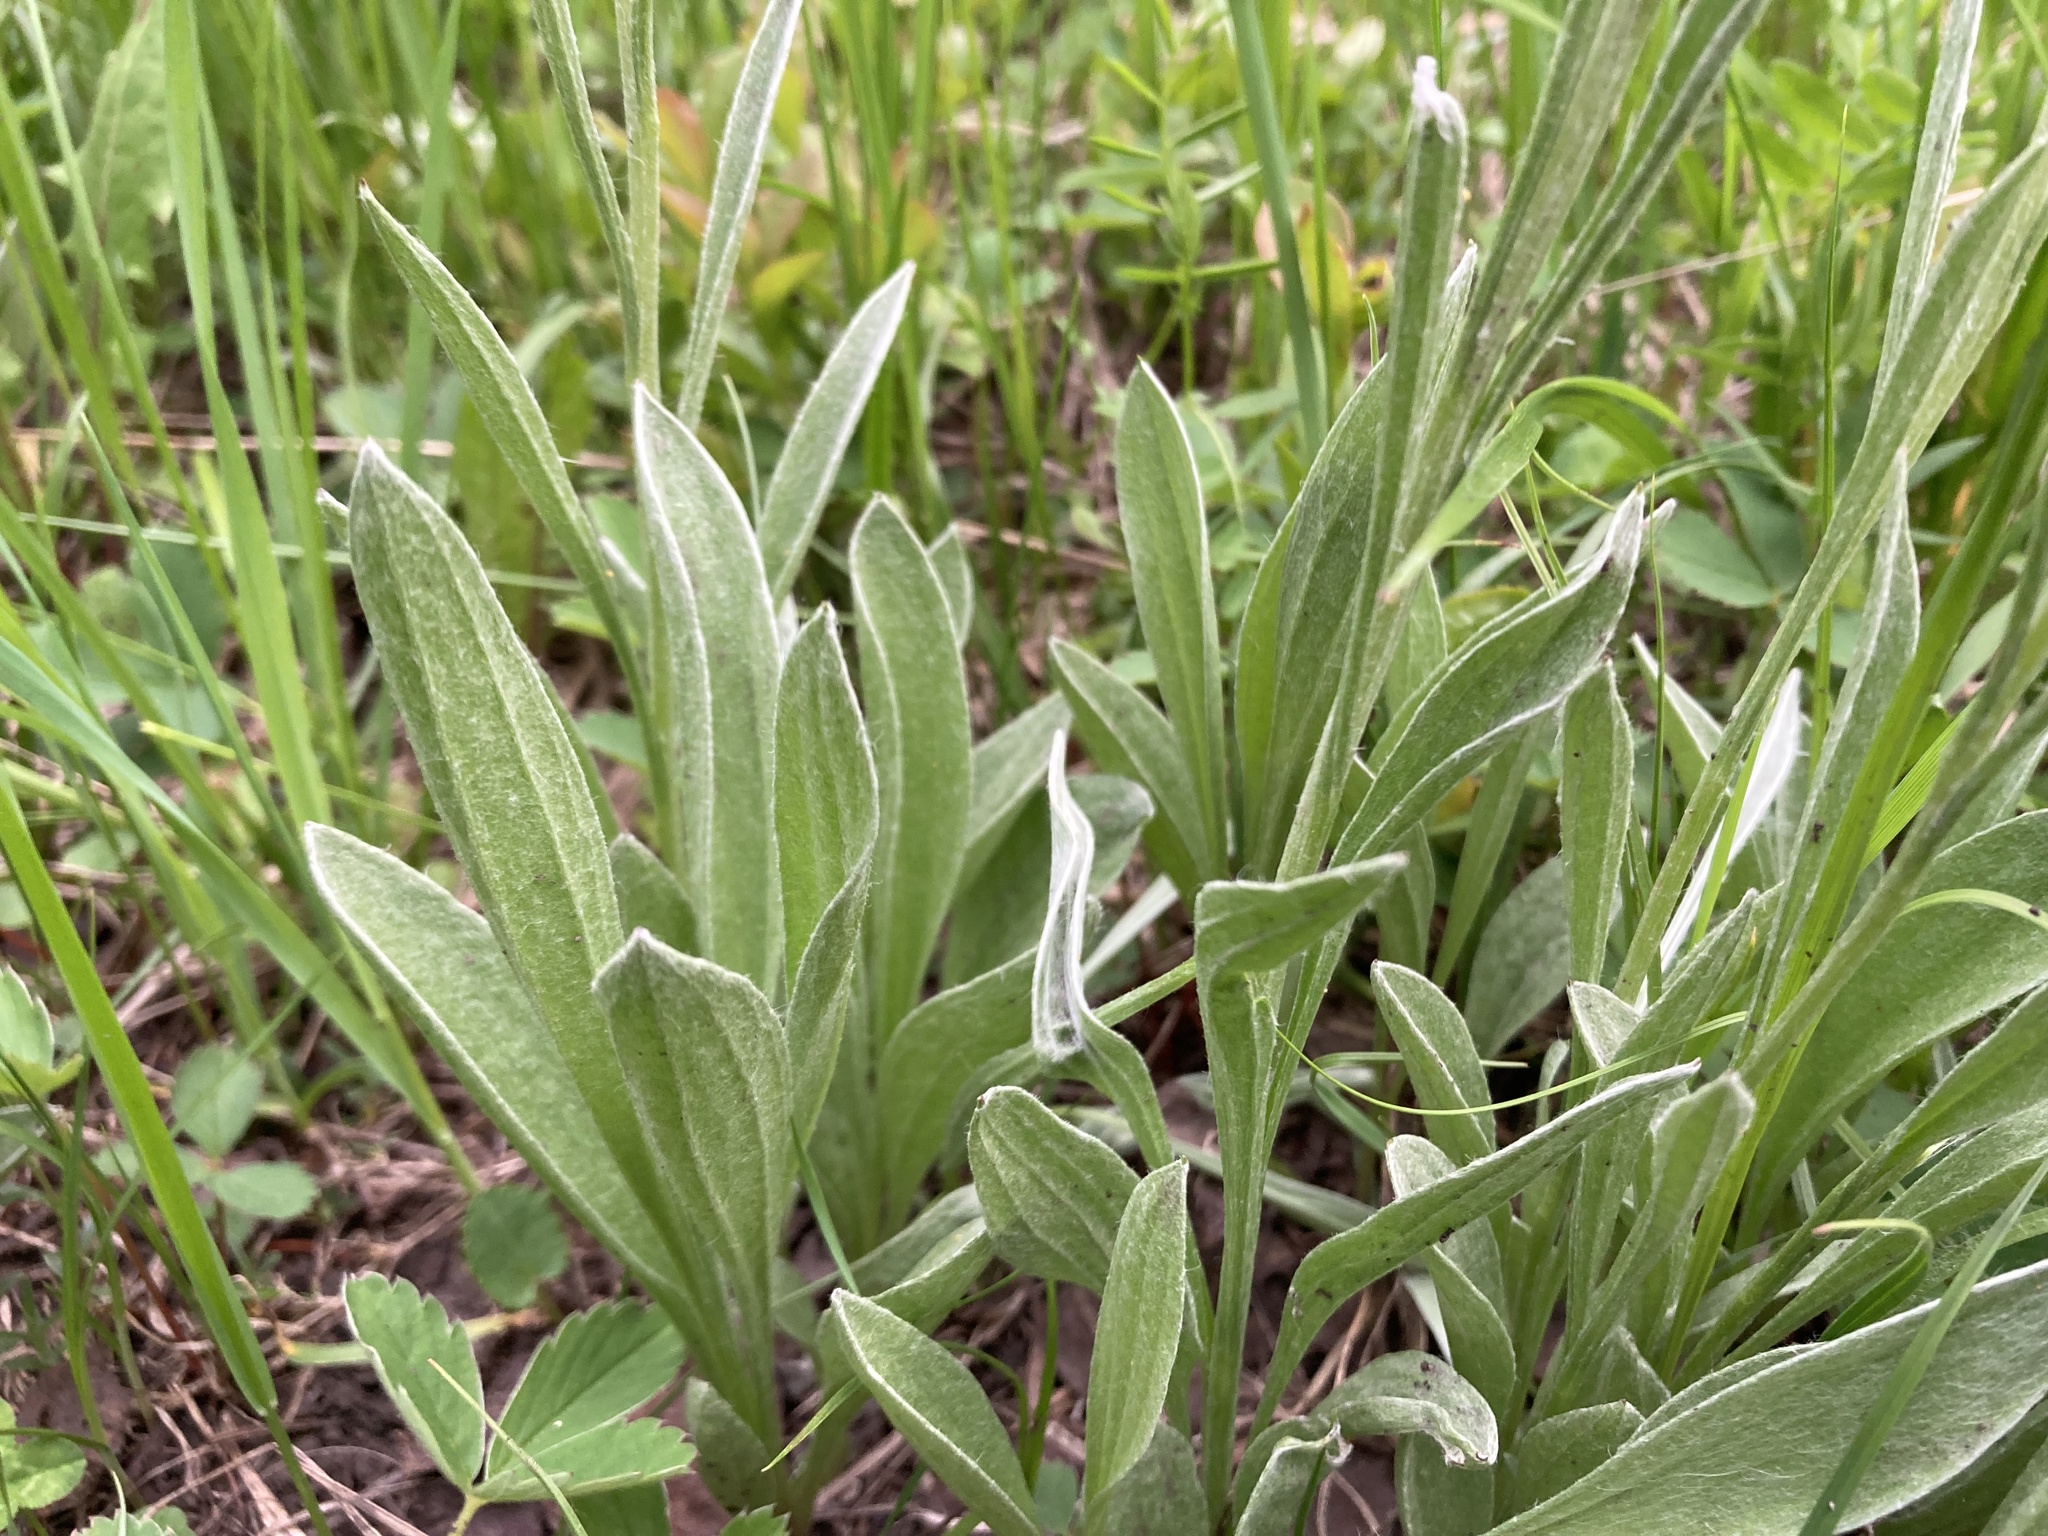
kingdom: Plantae
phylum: Tracheophyta
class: Magnoliopsida
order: Asterales
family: Asteraceae
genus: Antennaria
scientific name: Antennaria anaphaloides
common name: Tall pussytoes
